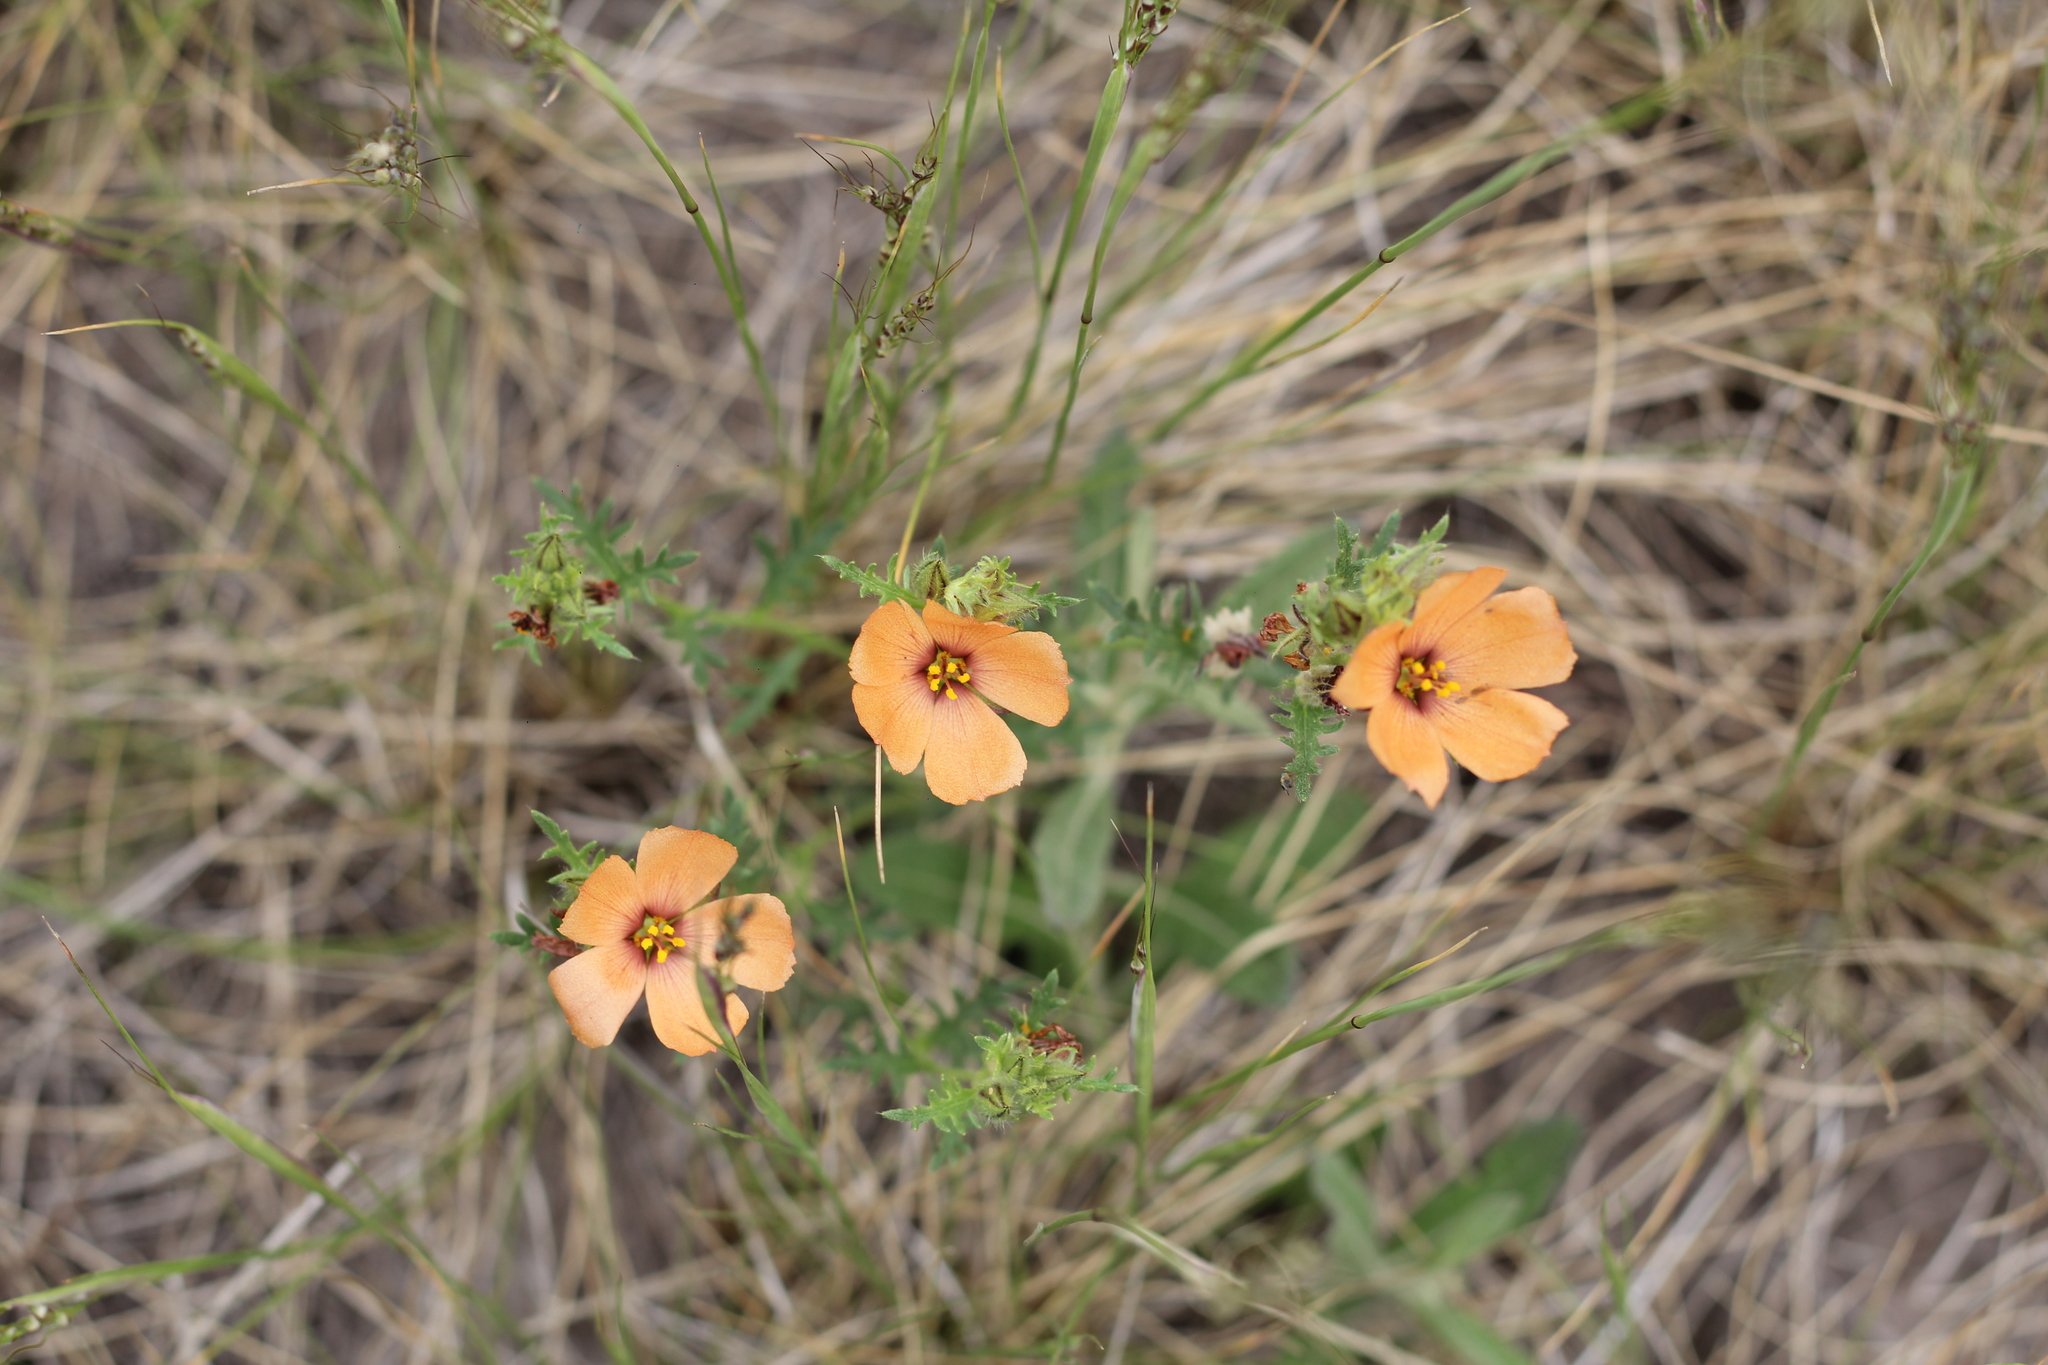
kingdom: Plantae
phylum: Tracheophyta
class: Magnoliopsida
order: Malpighiales
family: Turneraceae
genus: Turnera
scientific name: Turnera sidoides
